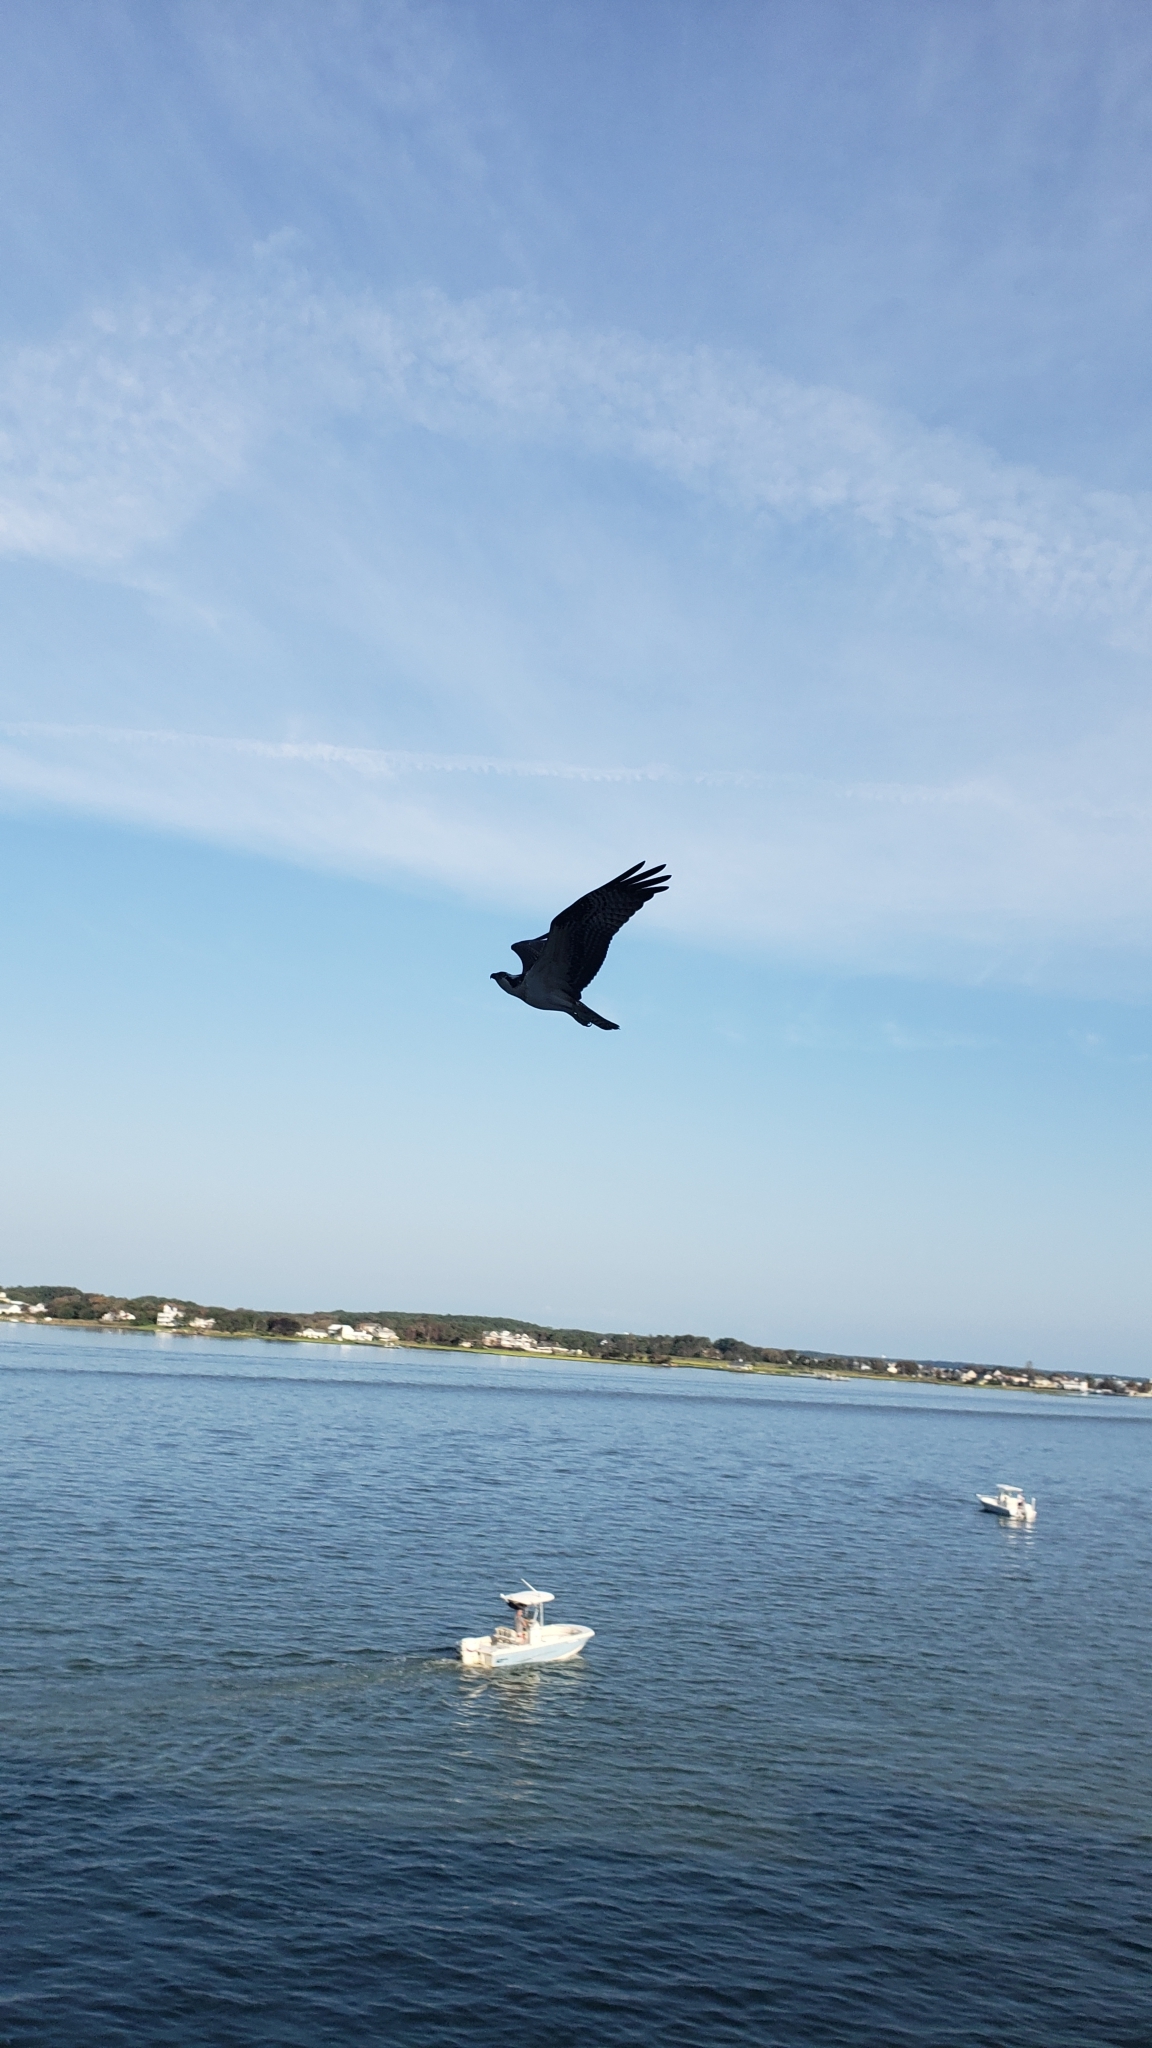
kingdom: Animalia
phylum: Chordata
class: Aves
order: Accipitriformes
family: Pandionidae
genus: Pandion
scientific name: Pandion haliaetus
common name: Osprey
